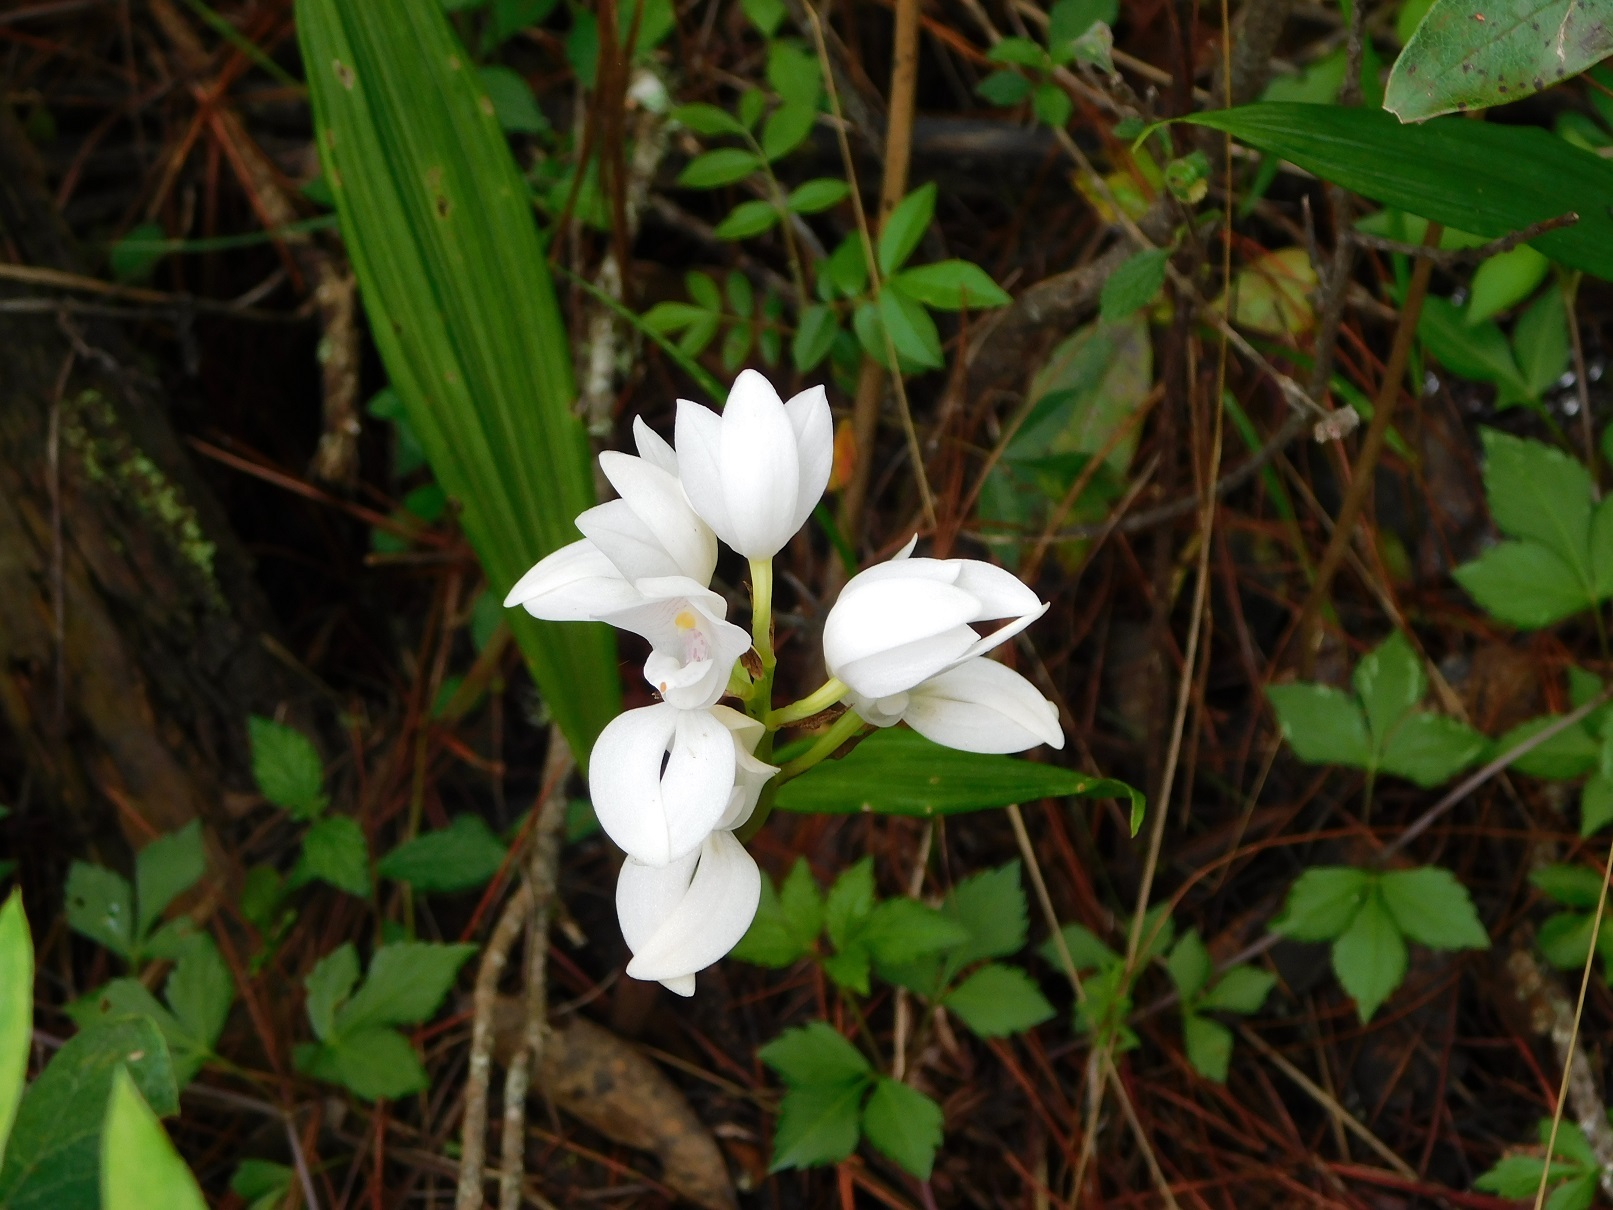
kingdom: Plantae
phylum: Tracheophyta
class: Liliopsida
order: Asparagales
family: Orchidaceae
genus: Govenia
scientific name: Govenia liliacea
